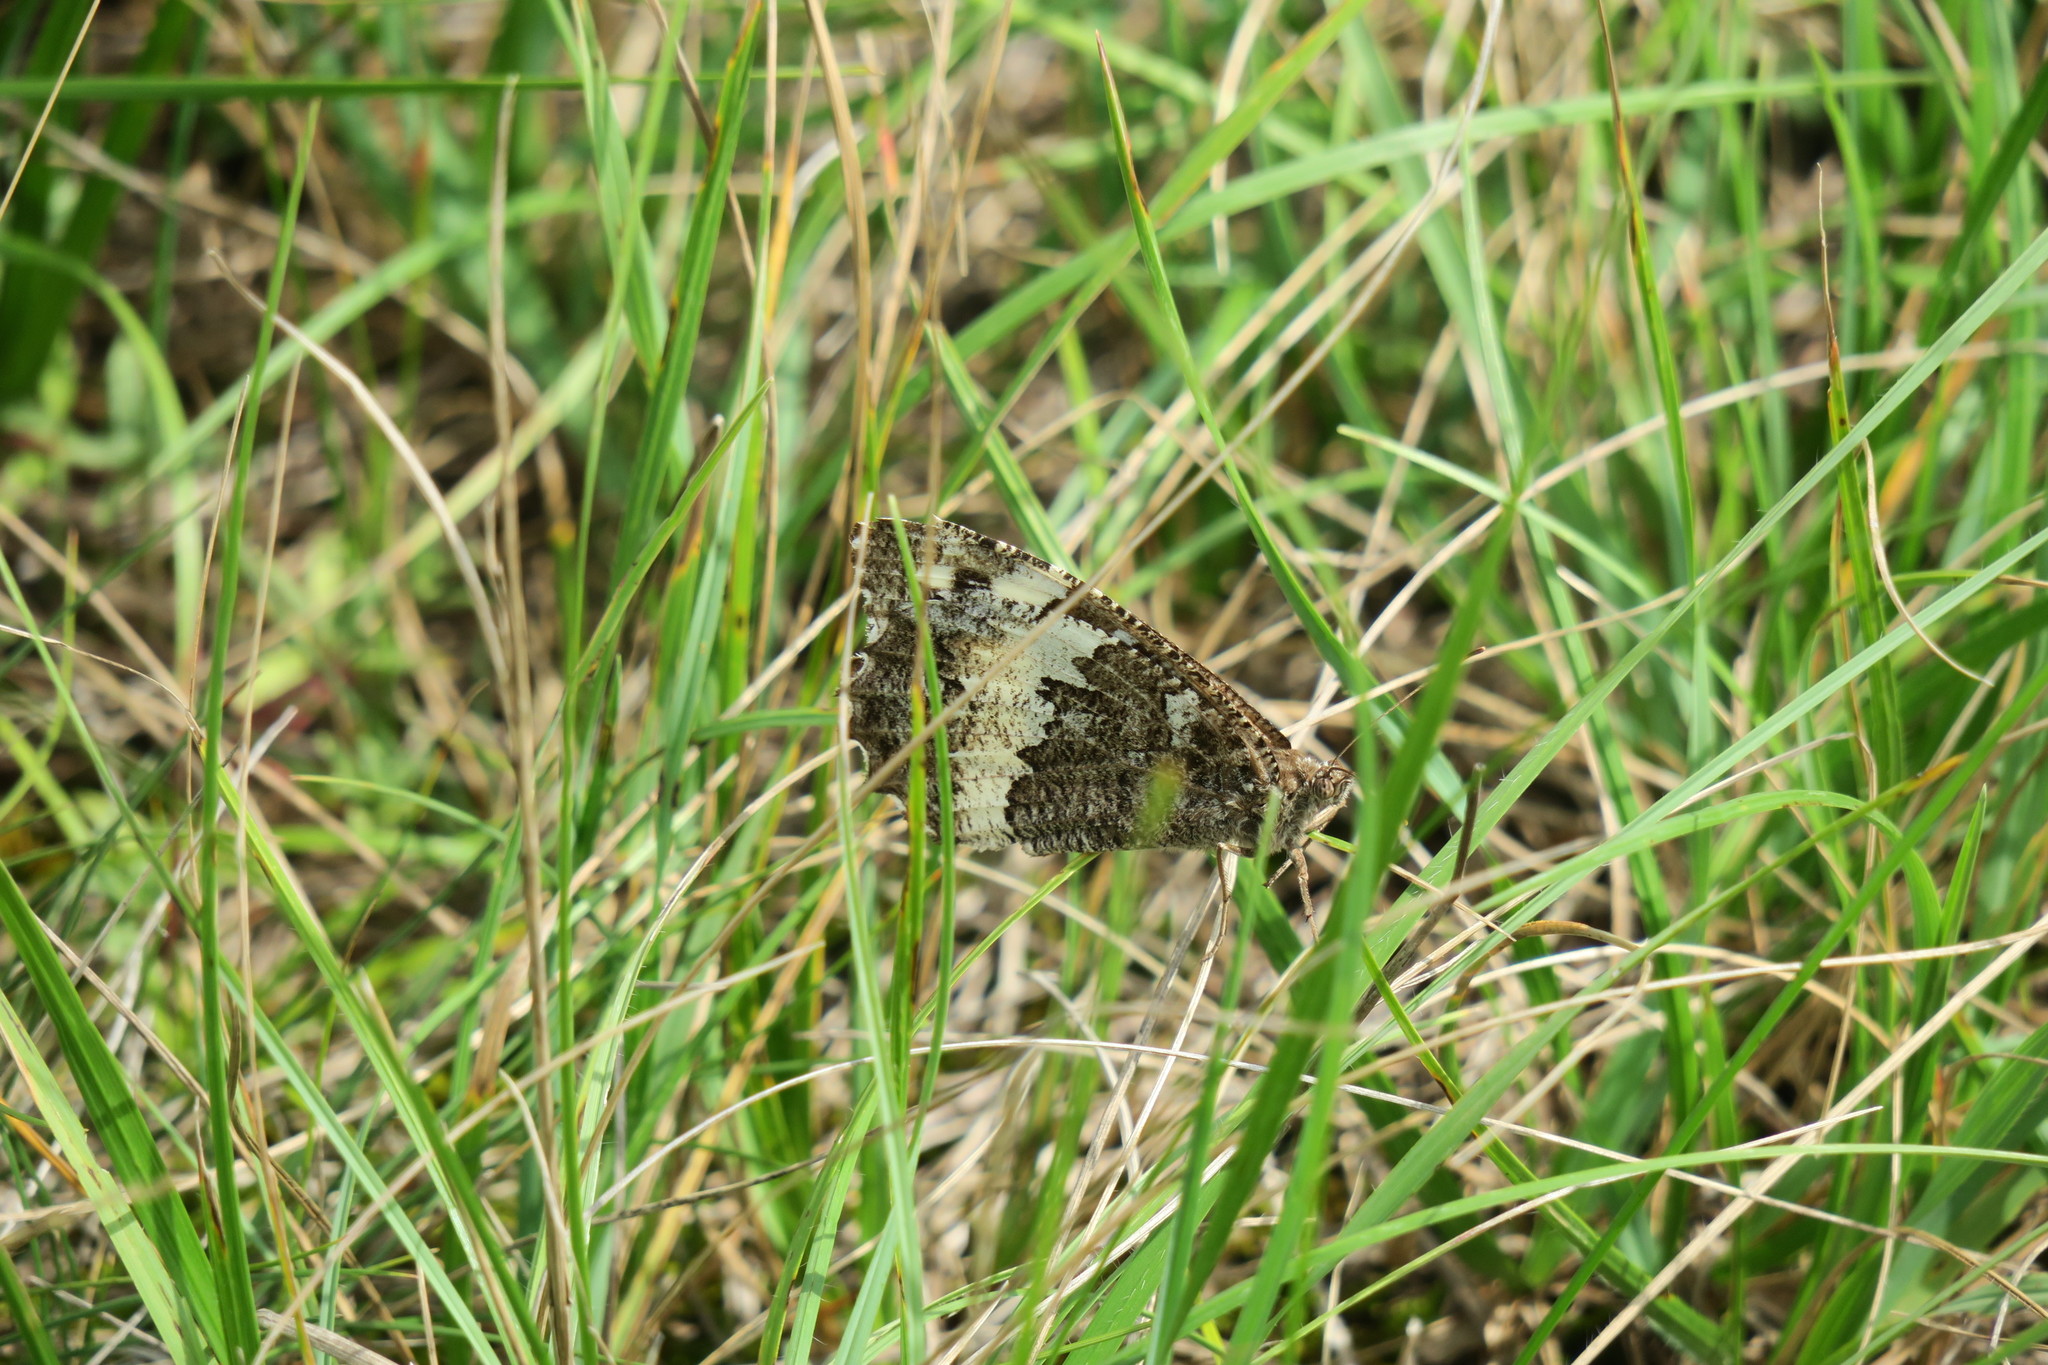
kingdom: Animalia
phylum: Arthropoda
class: Insecta
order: Lepidoptera
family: Lycaenidae
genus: Loweia
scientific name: Loweia tityrus
